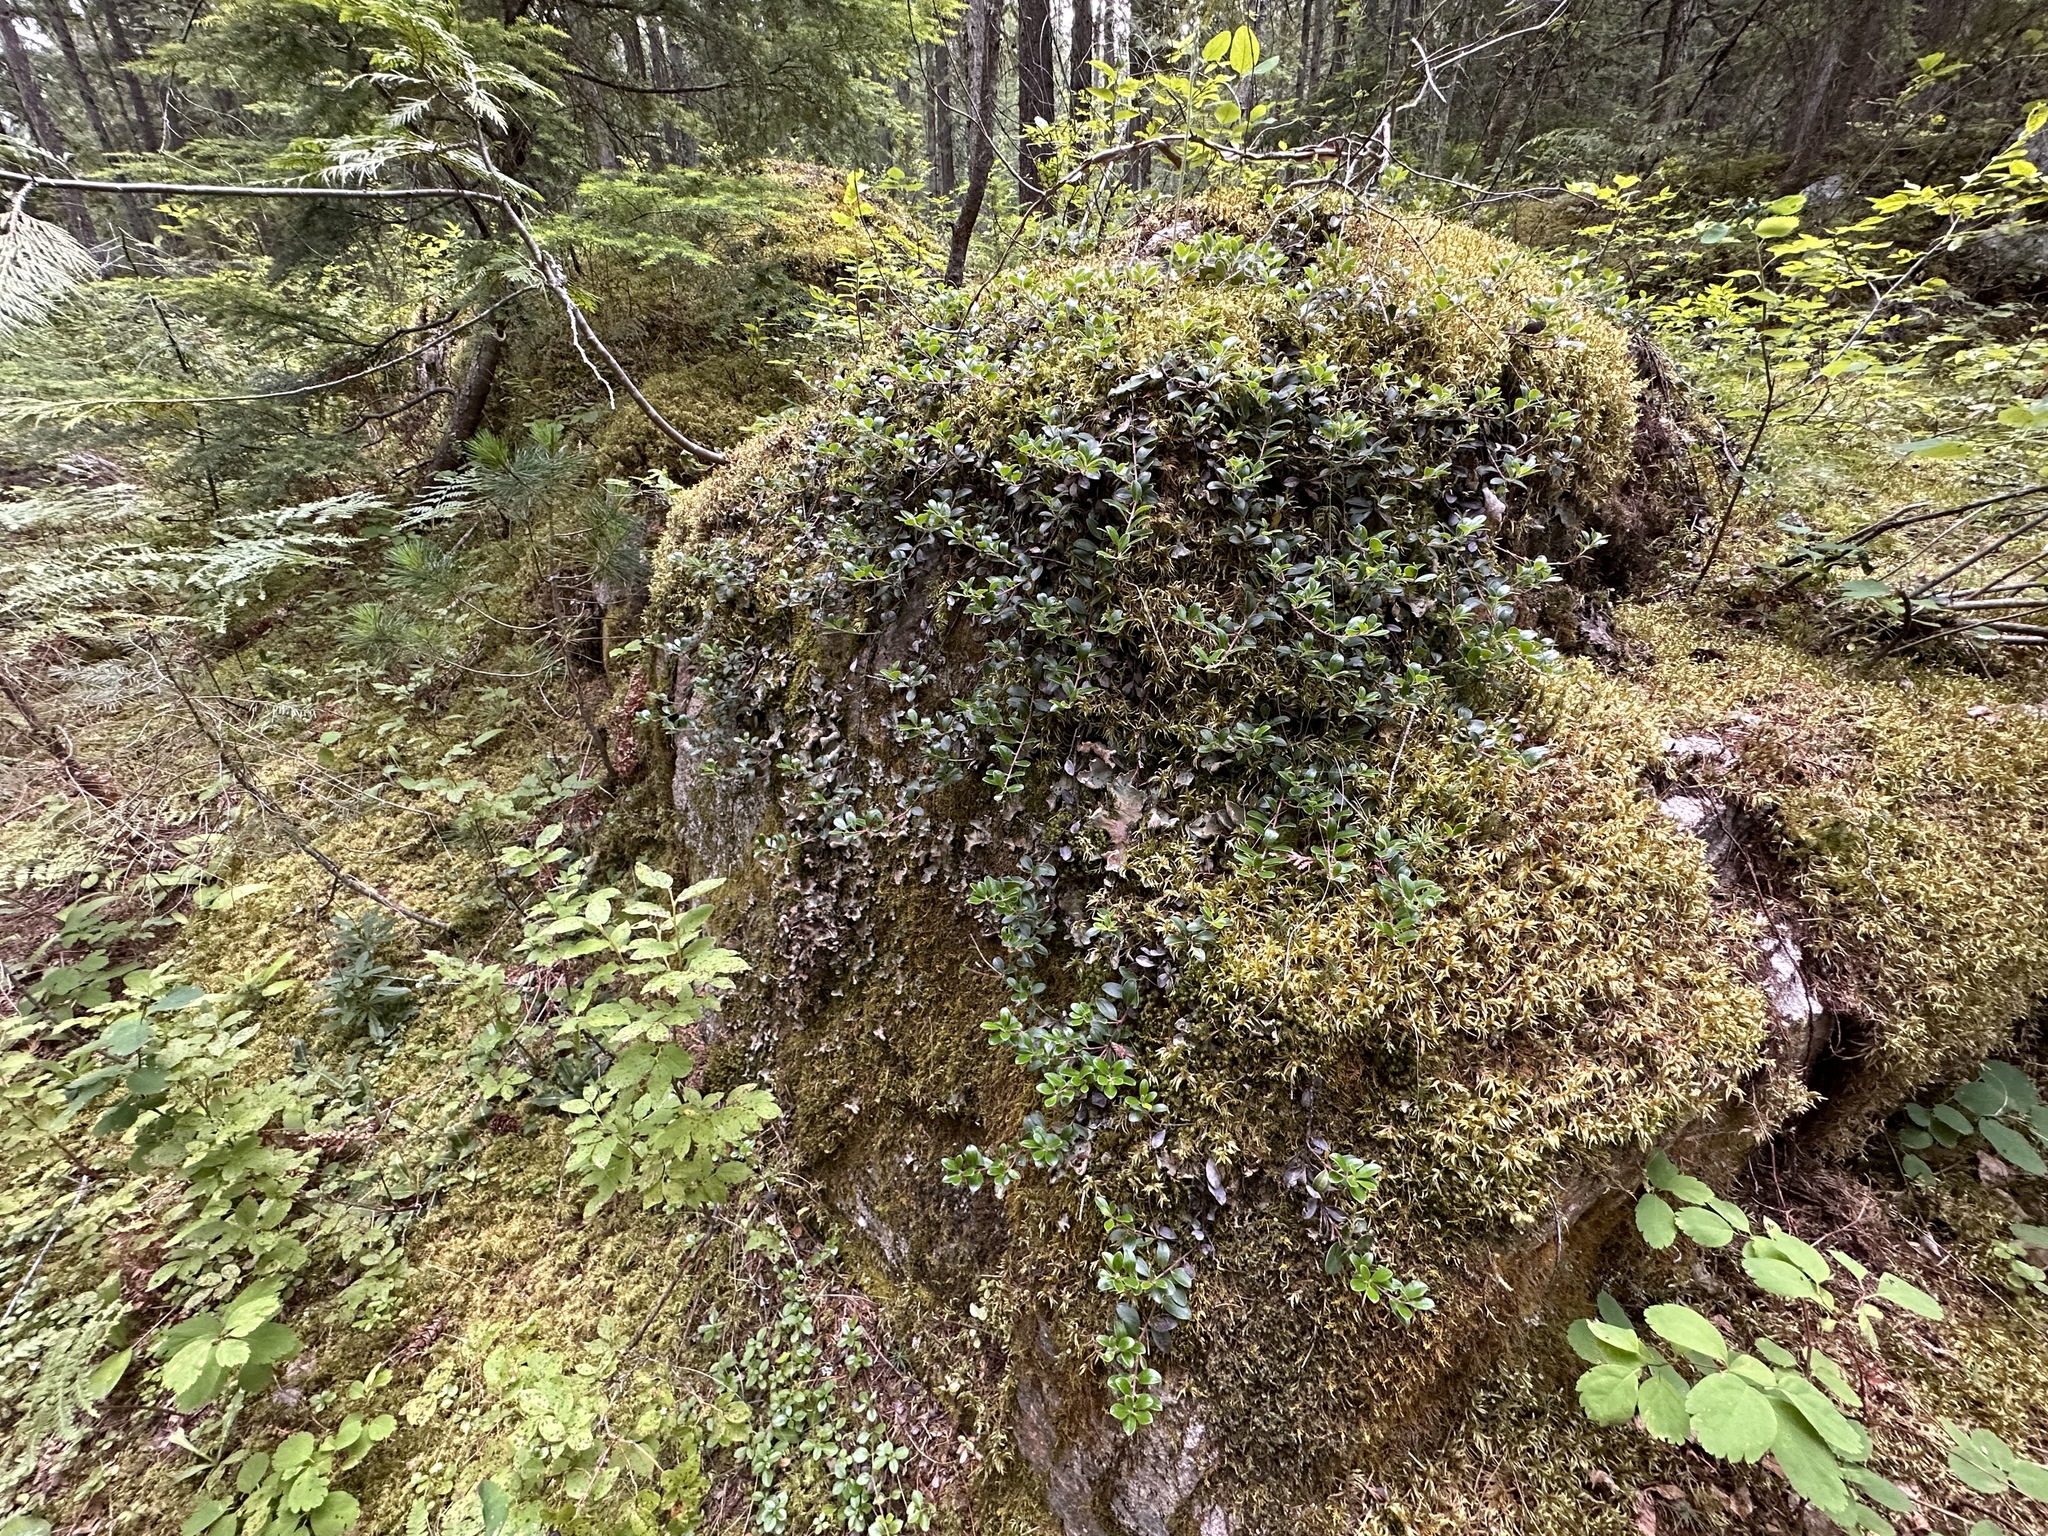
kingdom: Plantae
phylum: Tracheophyta
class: Magnoliopsida
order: Ericales
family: Ericaceae
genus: Arctostaphylos
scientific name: Arctostaphylos uva-ursi
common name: Bearberry
